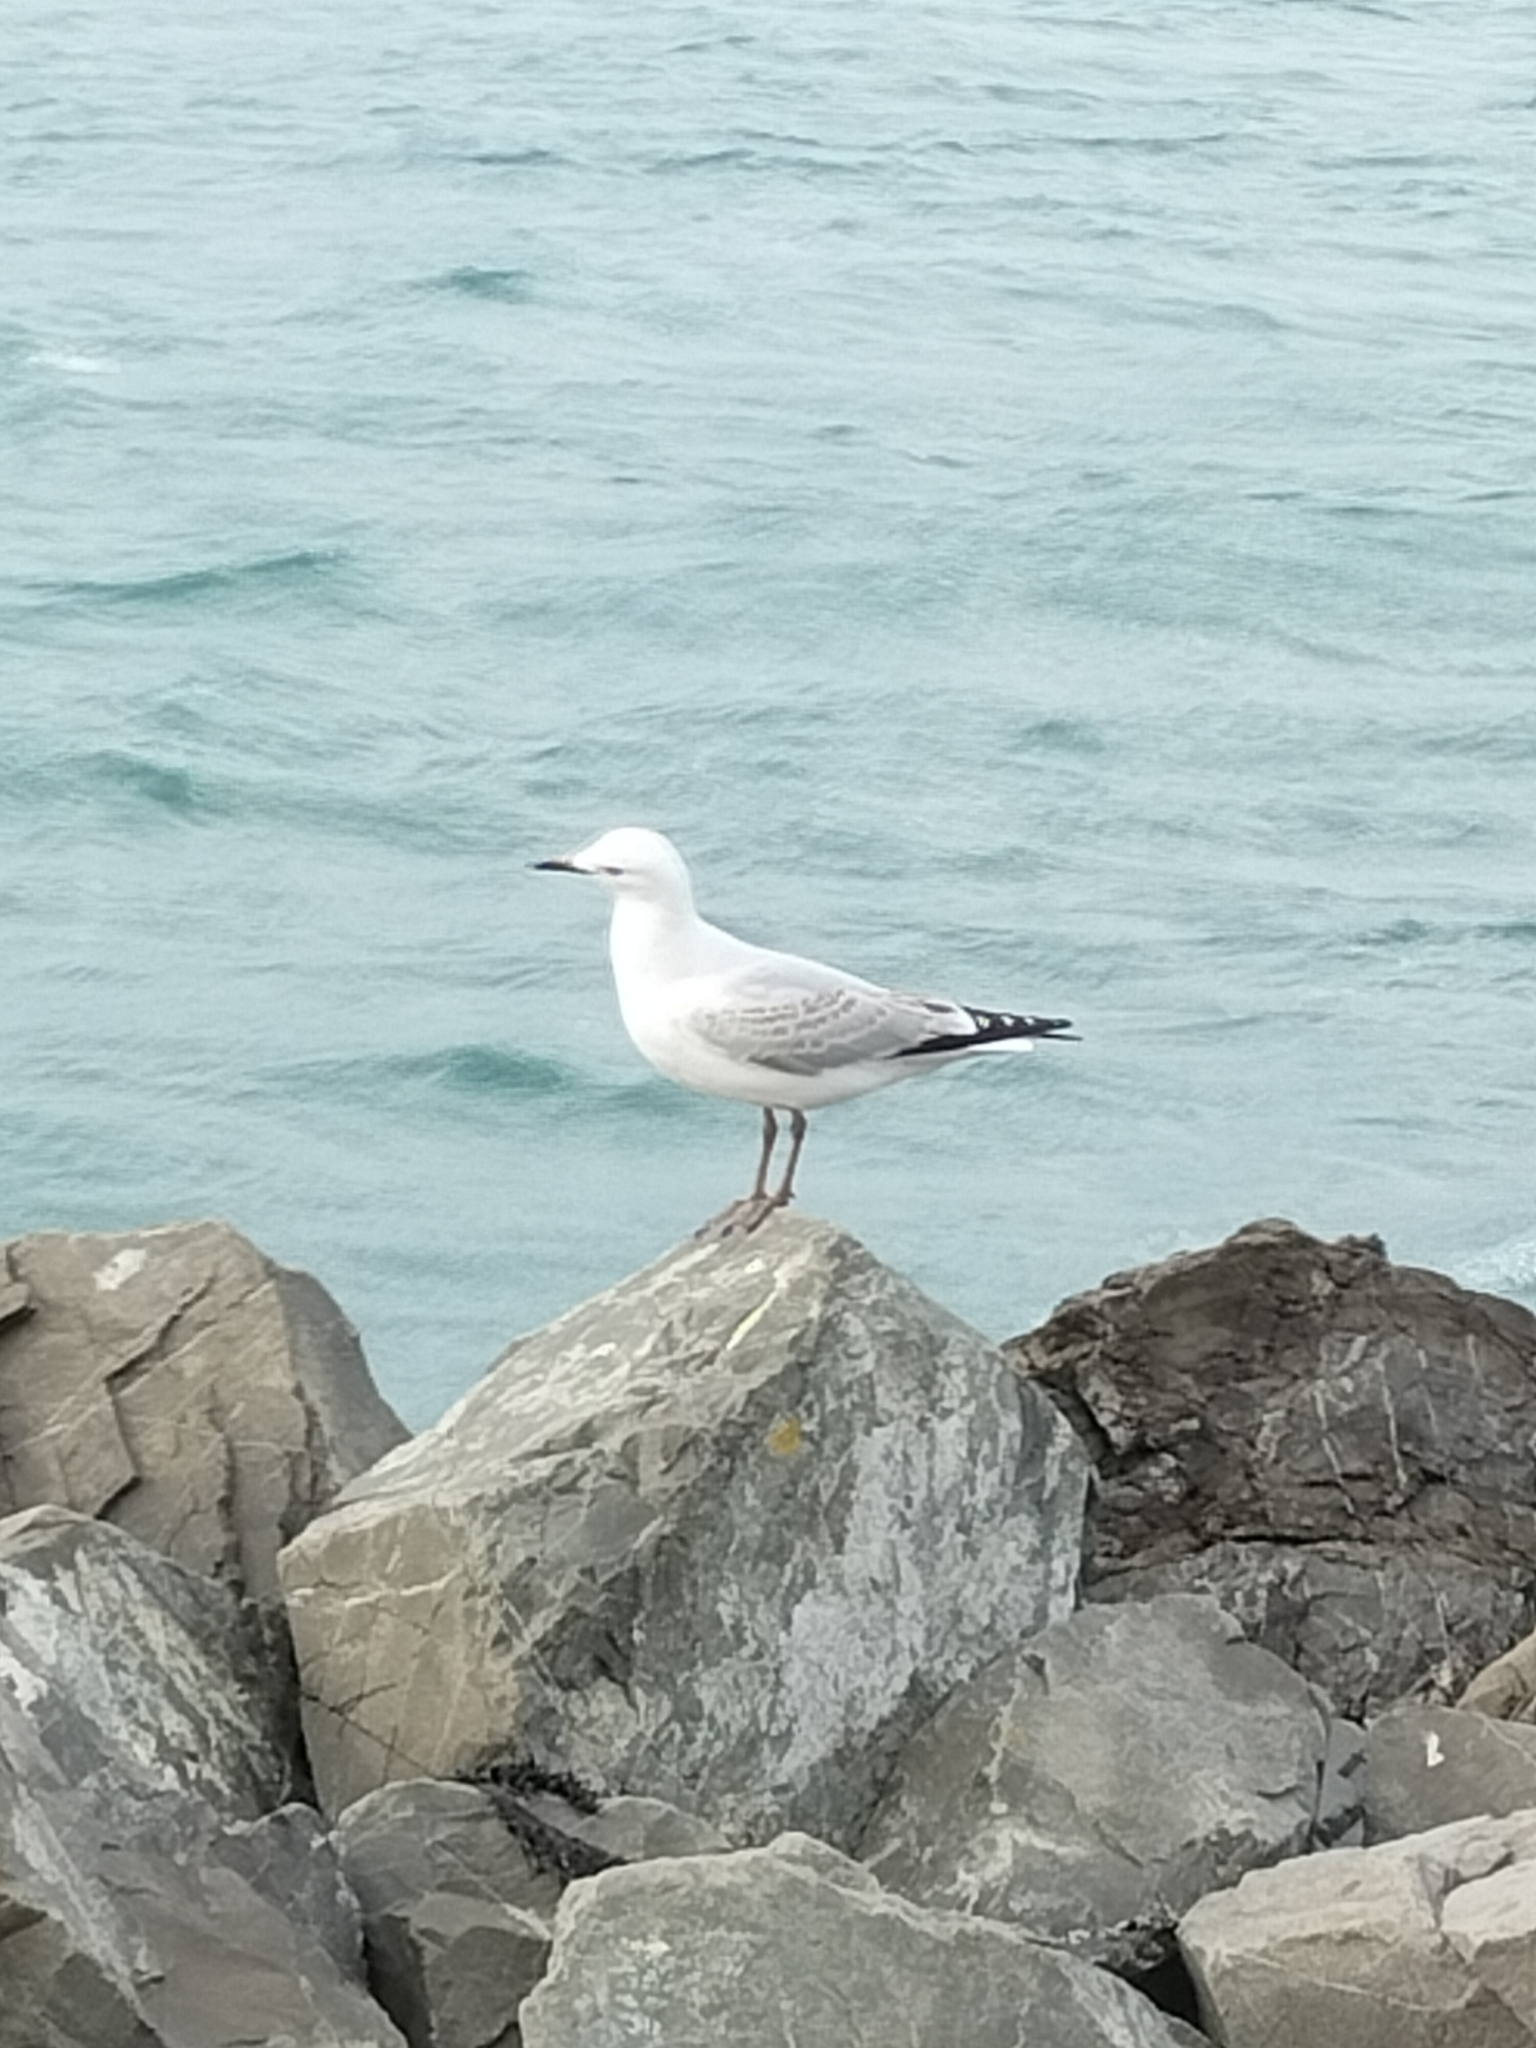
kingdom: Animalia
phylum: Chordata
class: Aves
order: Charadriiformes
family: Laridae
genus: Chroicocephalus
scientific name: Chroicocephalus novaehollandiae
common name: Silver gull
